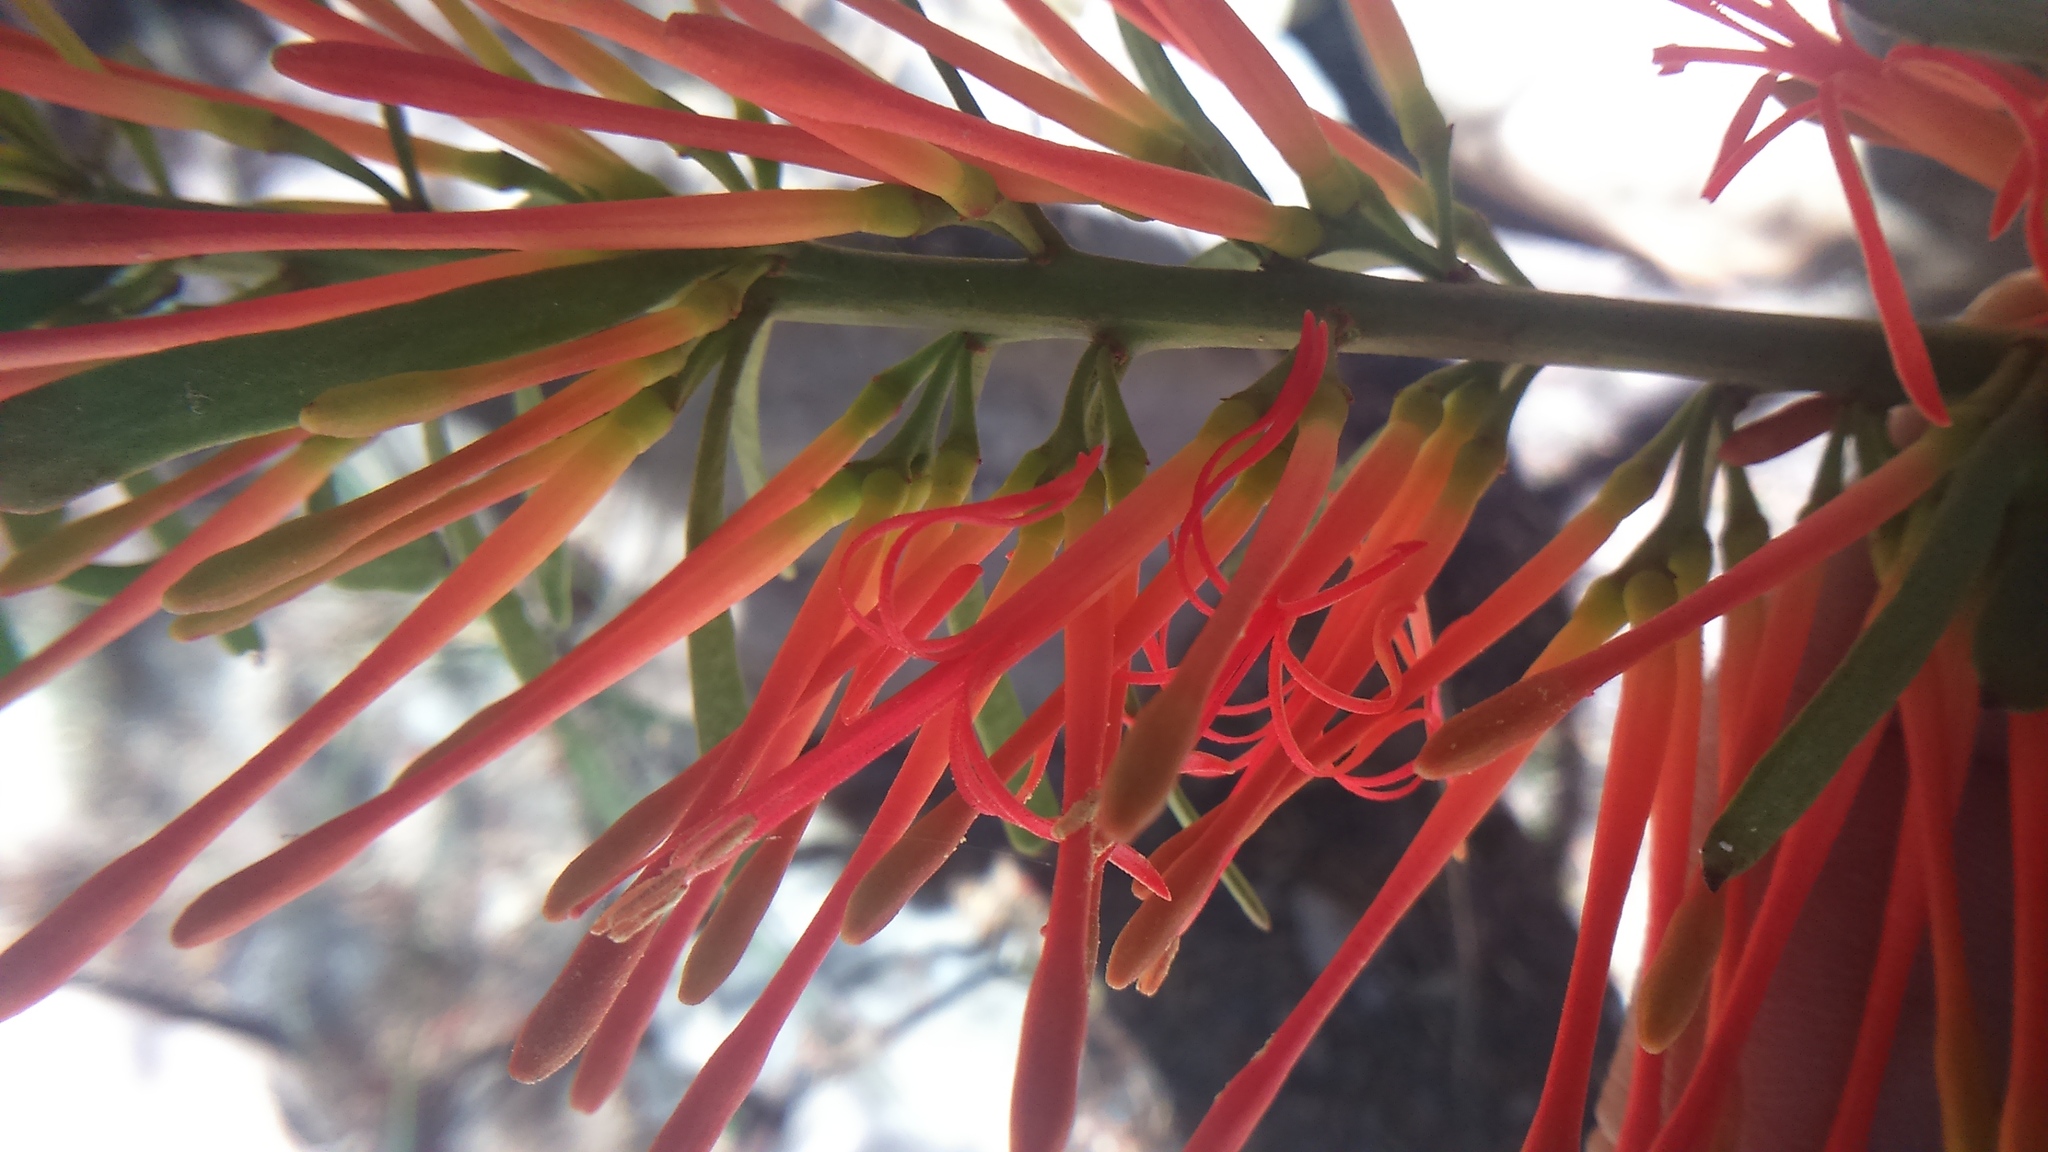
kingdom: Plantae
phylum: Tracheophyta
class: Magnoliopsida
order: Santalales
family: Loranthaceae
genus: Ligaria
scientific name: Ligaria cuneifolia
